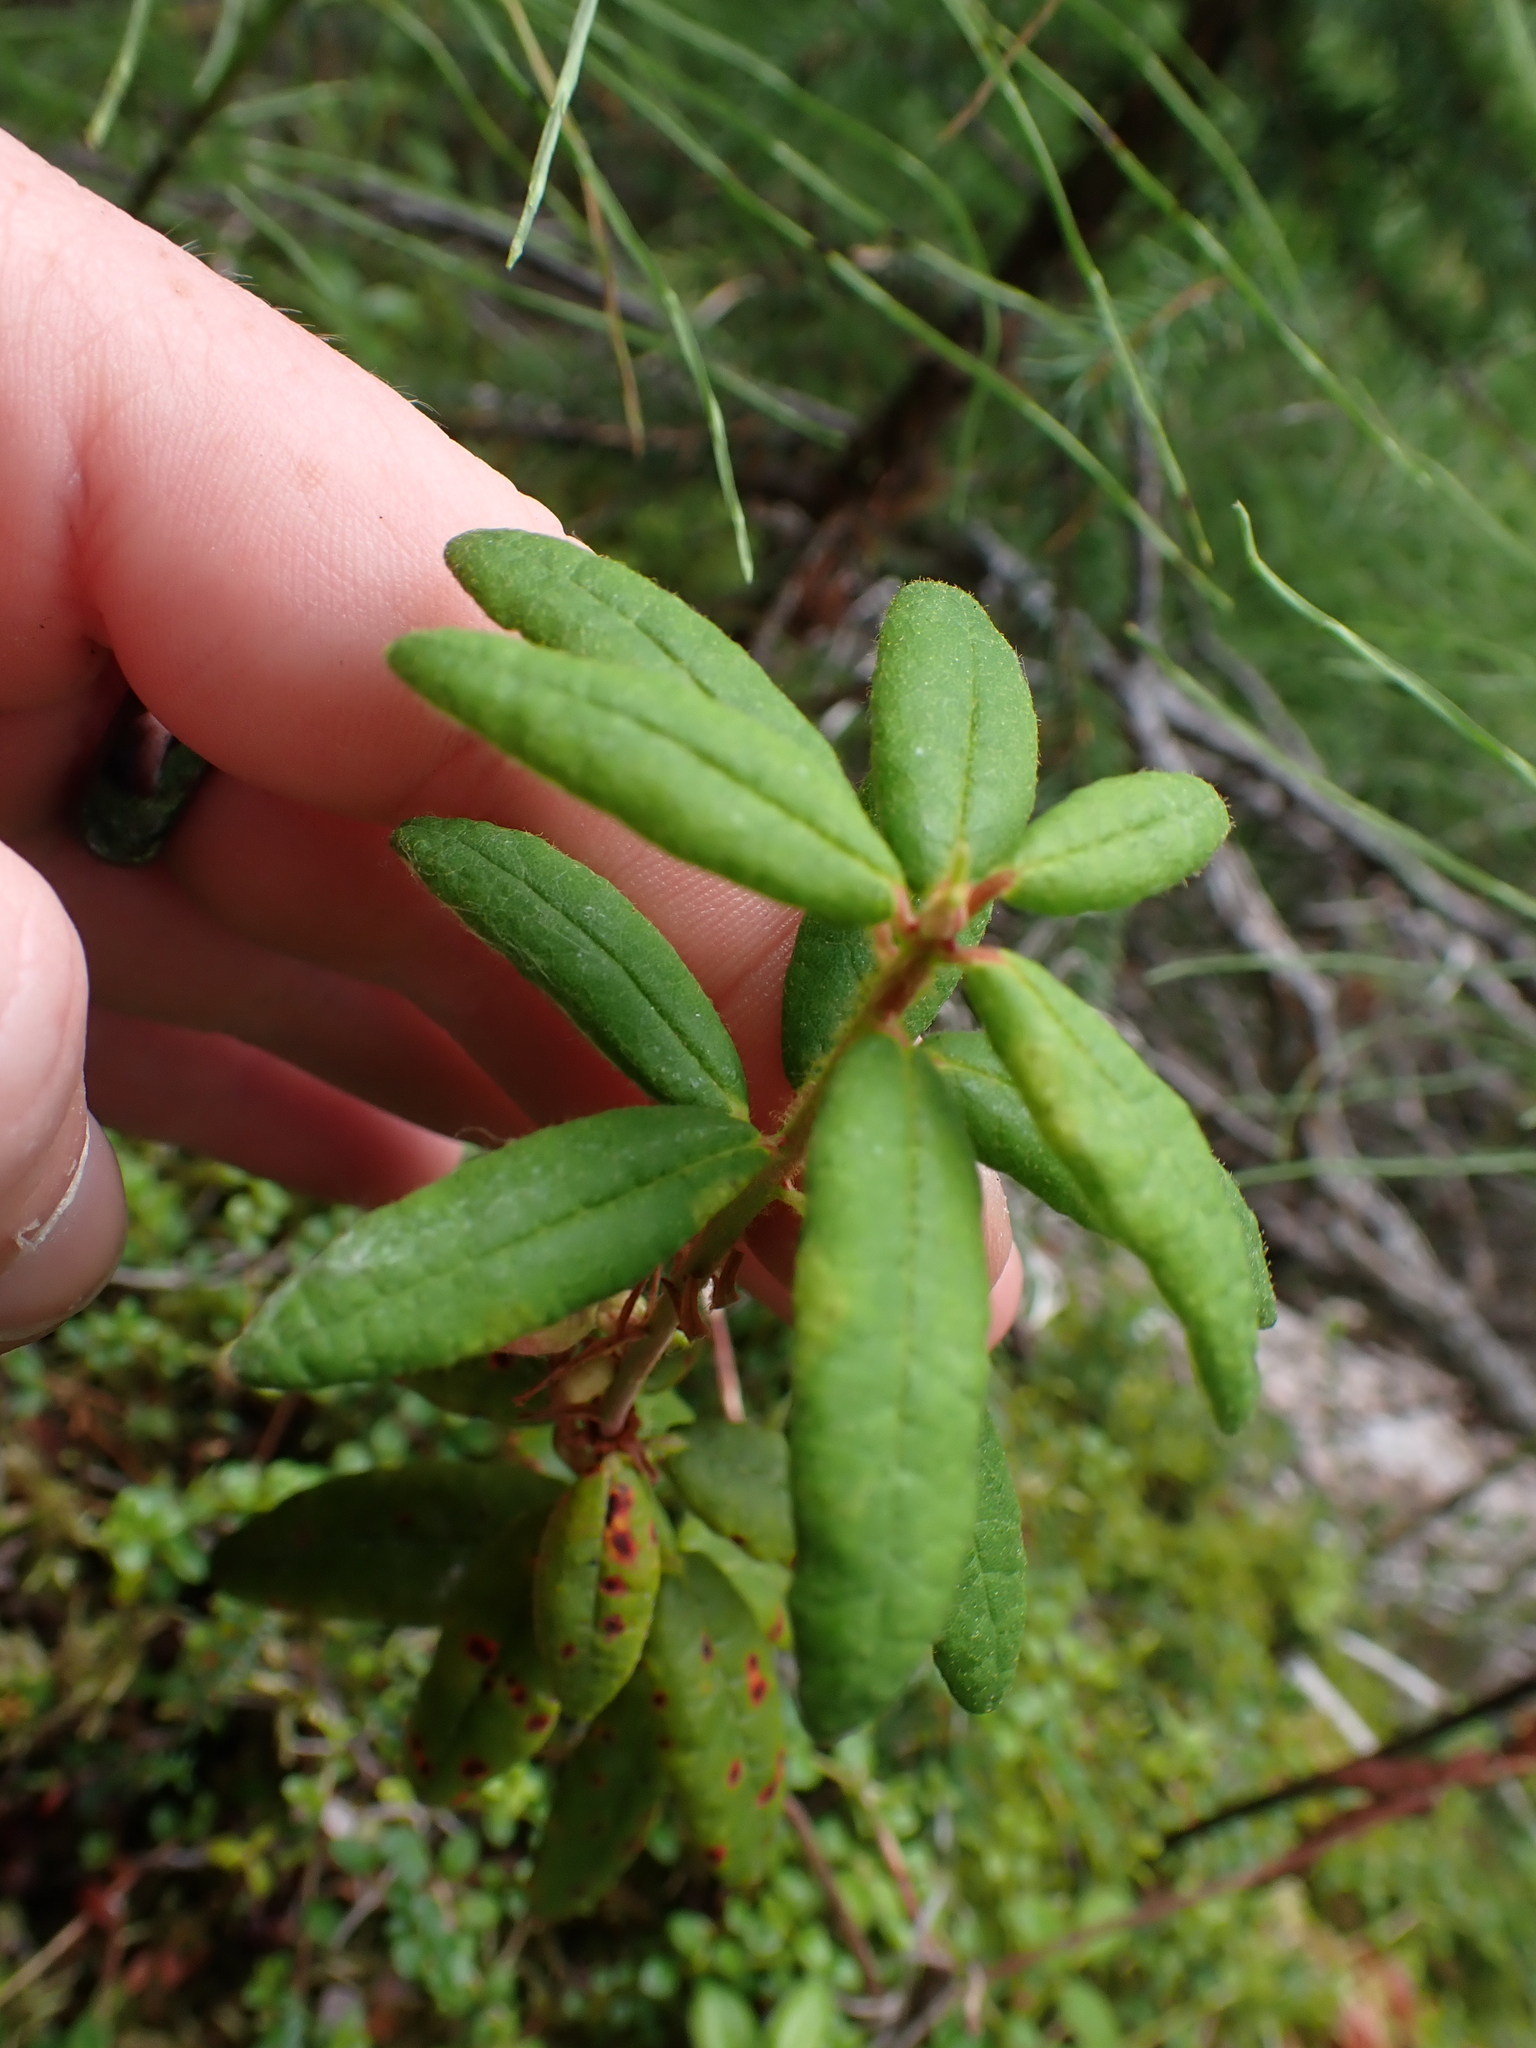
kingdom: Plantae
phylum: Tracheophyta
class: Magnoliopsida
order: Ericales
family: Ericaceae
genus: Rhododendron
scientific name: Rhododendron groenlandicum
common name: Bog labrador tea
